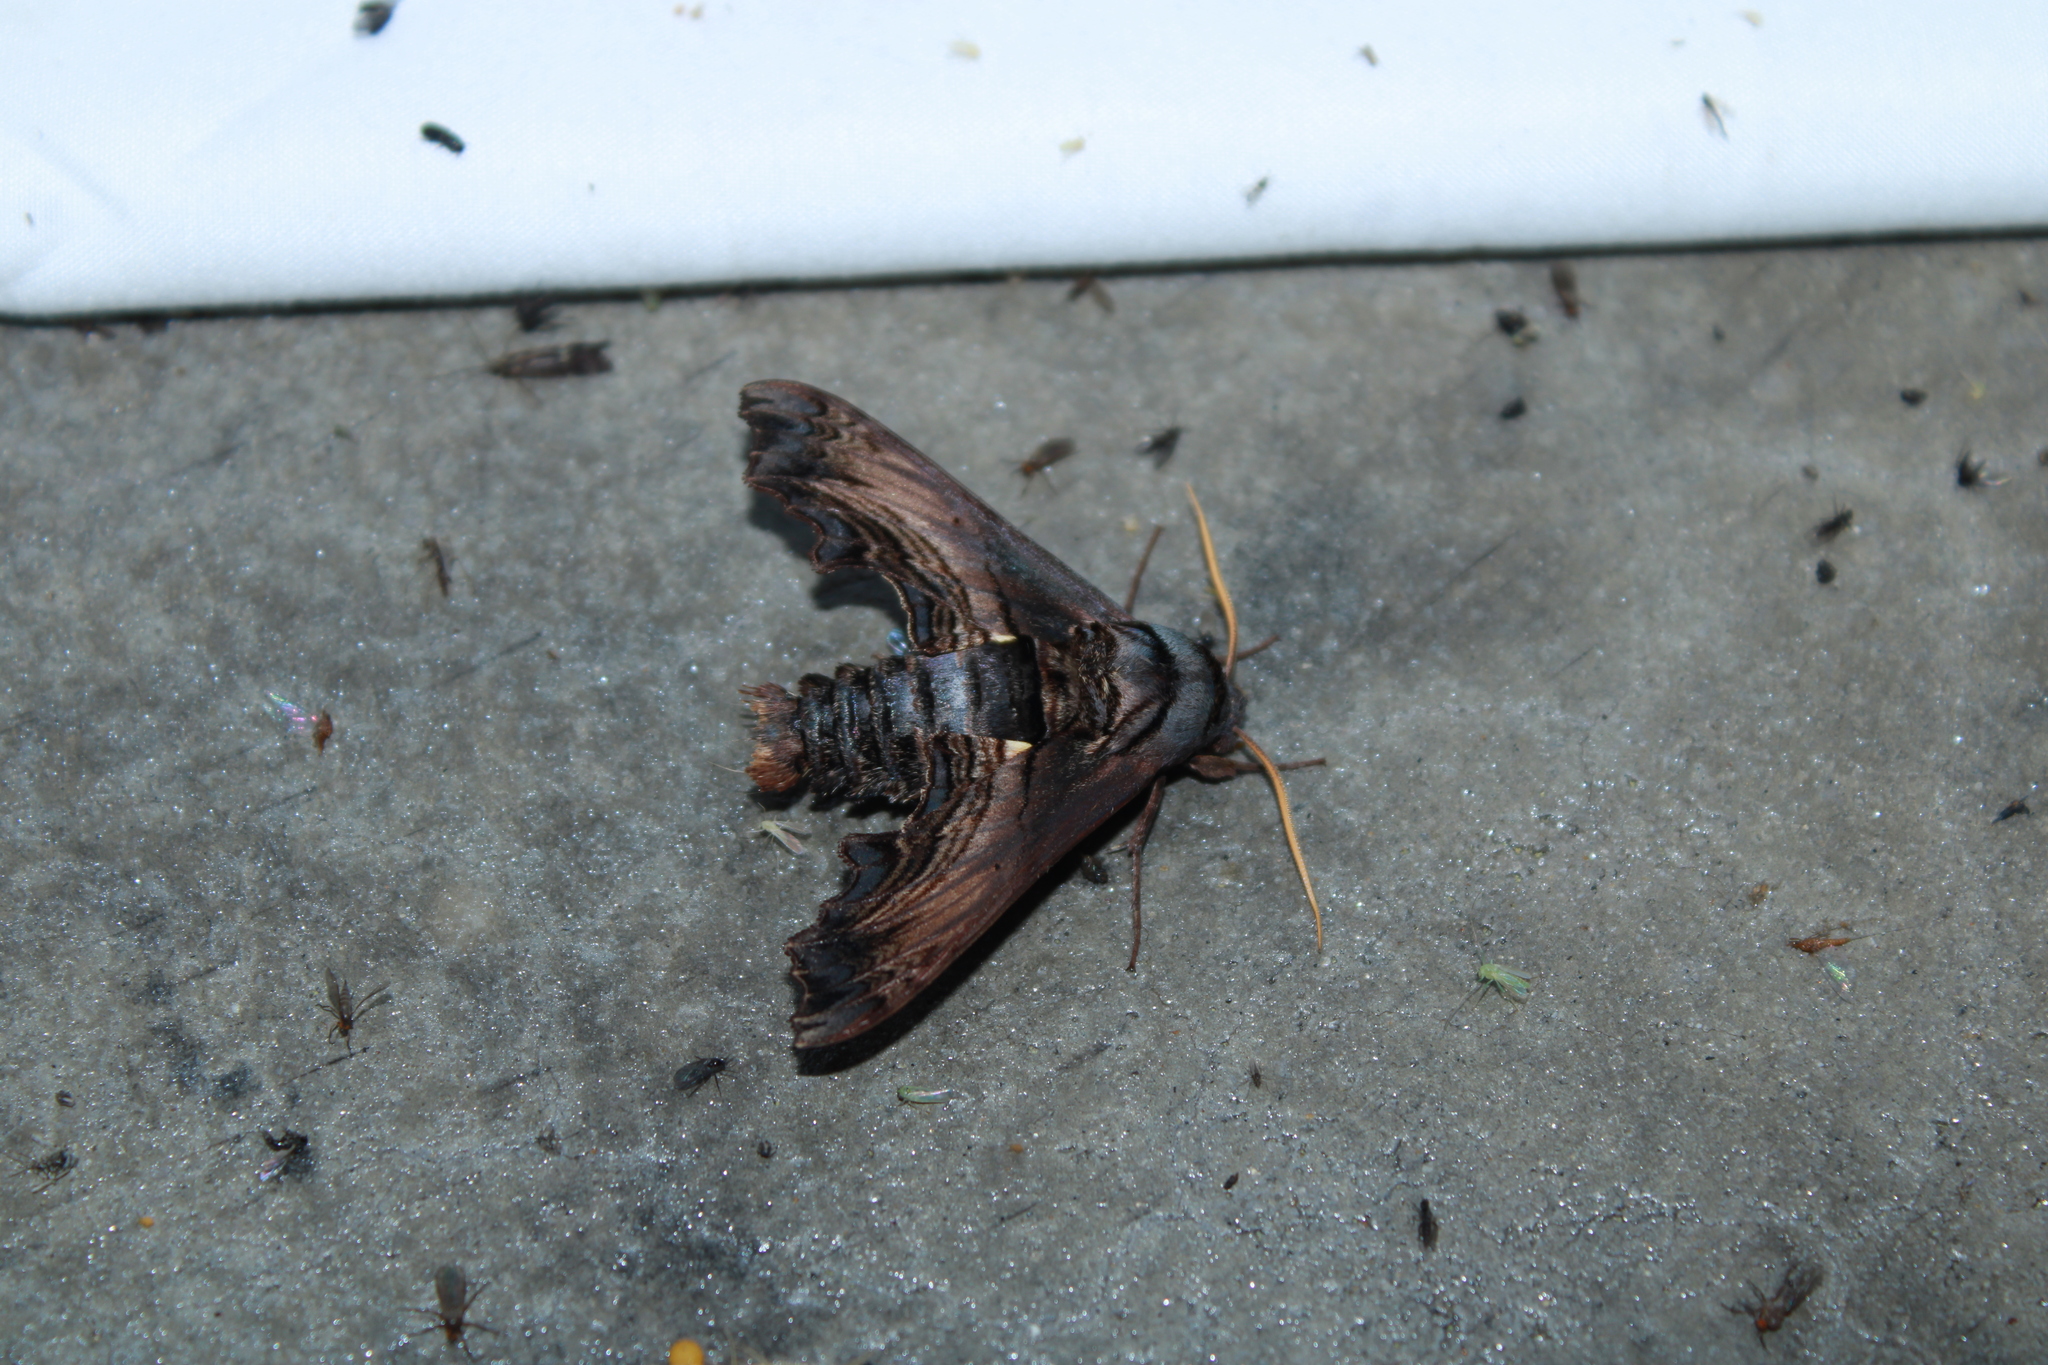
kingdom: Animalia
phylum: Arthropoda
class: Insecta
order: Lepidoptera
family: Sphingidae
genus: Sphecodina
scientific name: Sphecodina abbottii
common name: Abbott's sphinx
